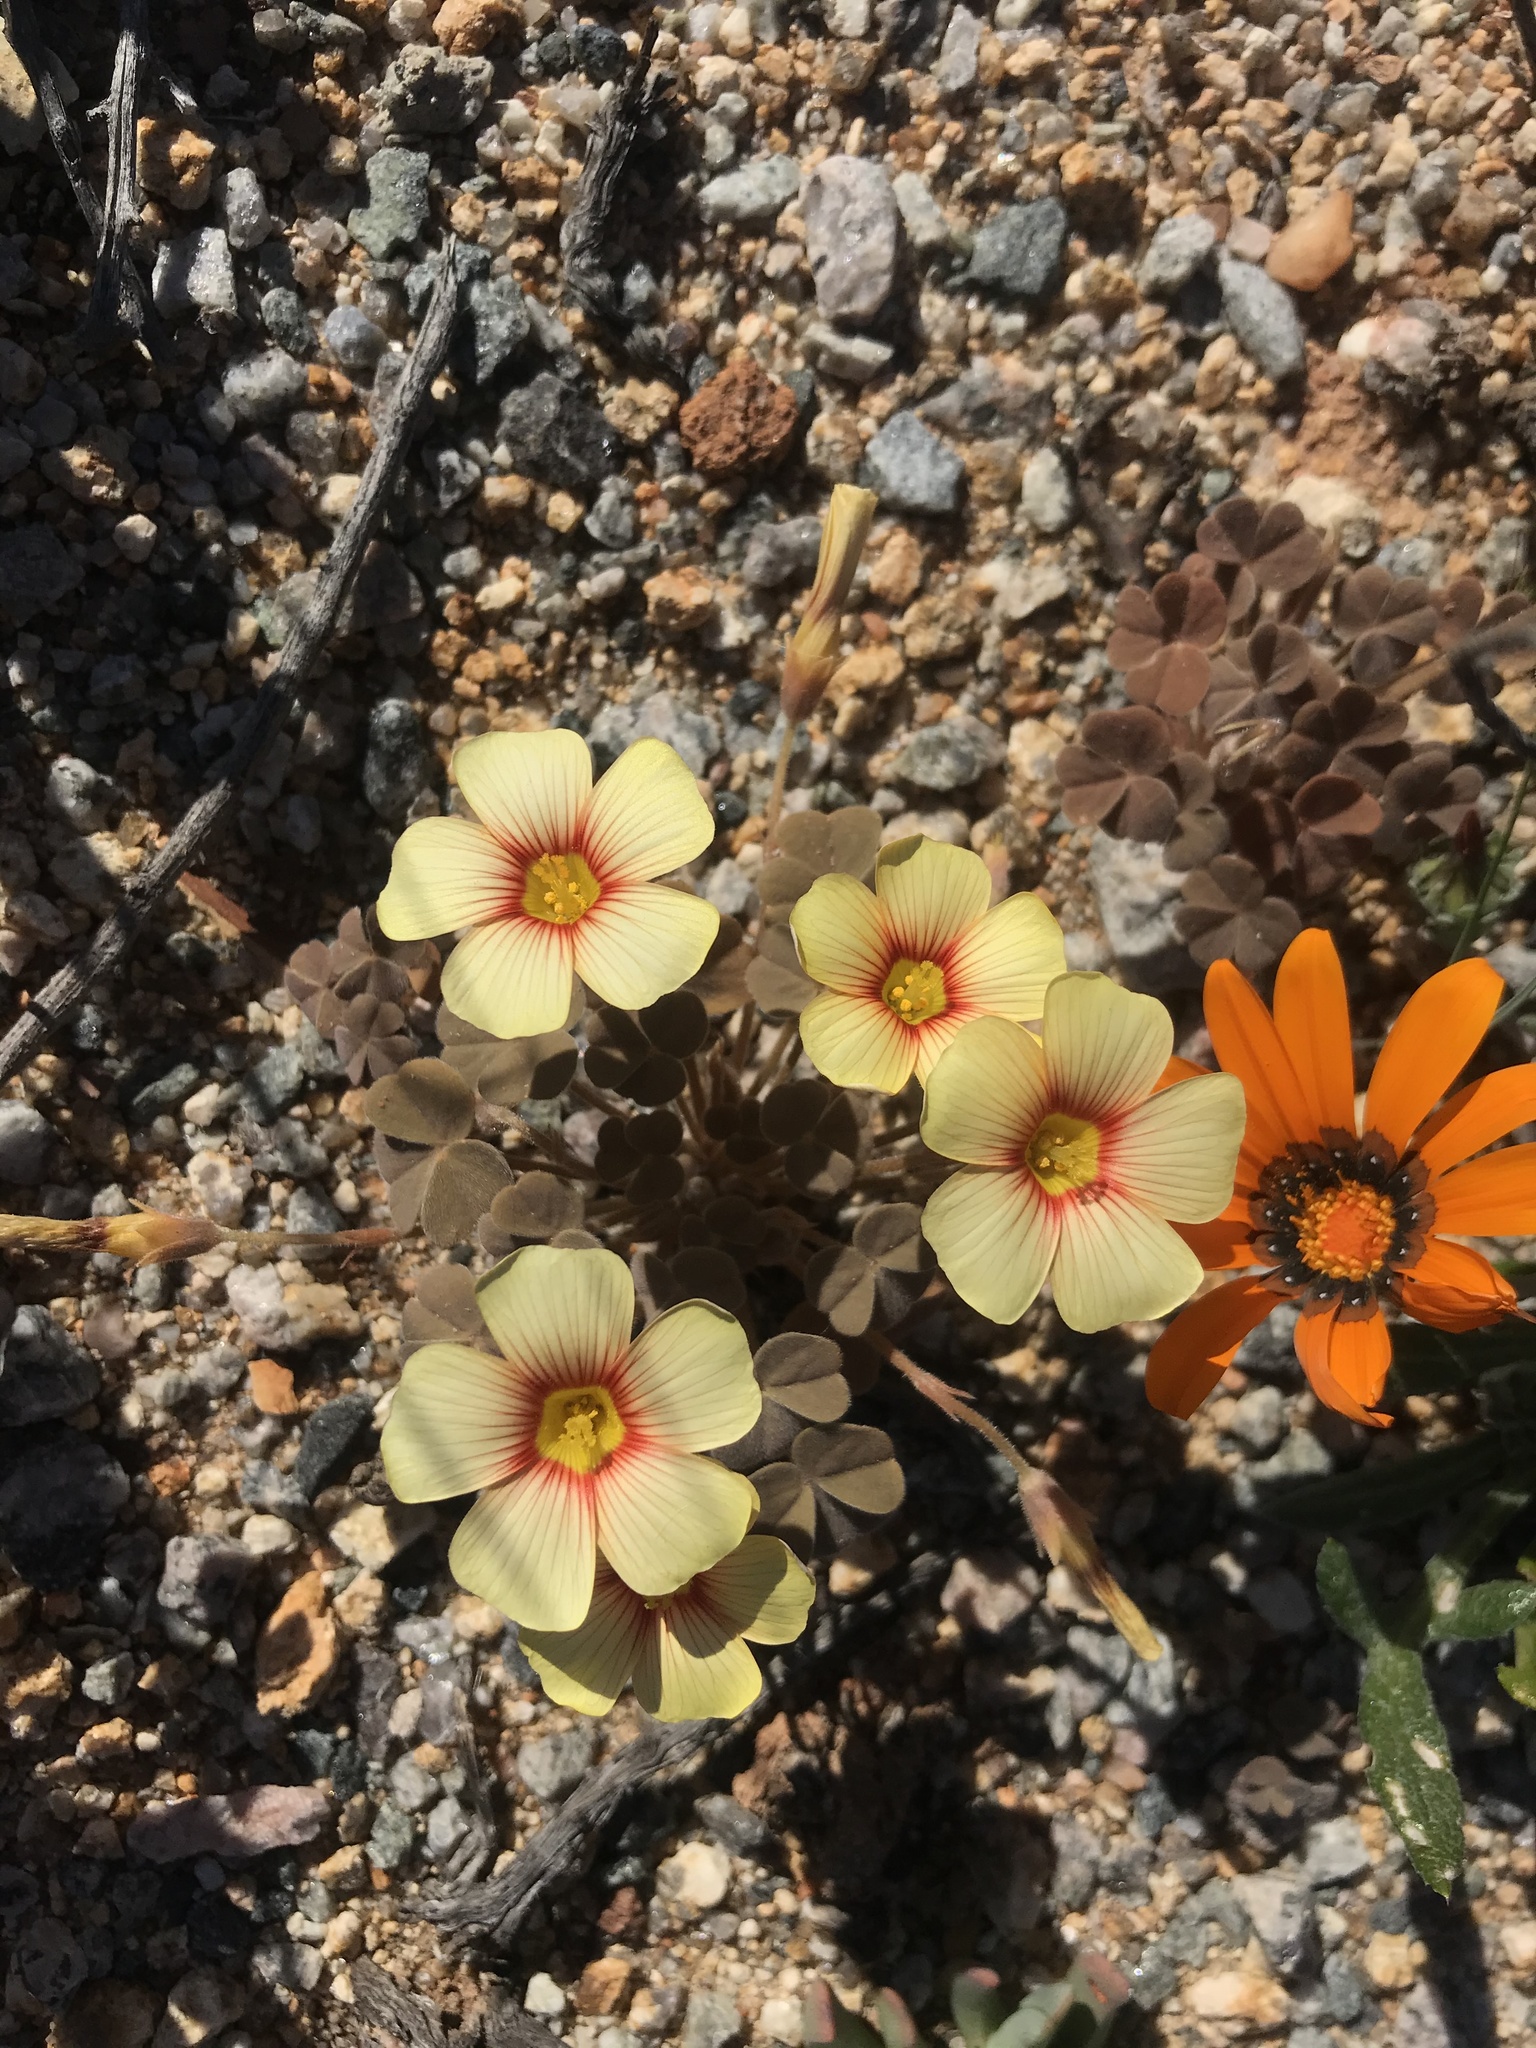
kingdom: Plantae
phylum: Tracheophyta
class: Magnoliopsida
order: Oxalidales
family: Oxalidaceae
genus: Oxalis
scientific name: Oxalis obtusa
